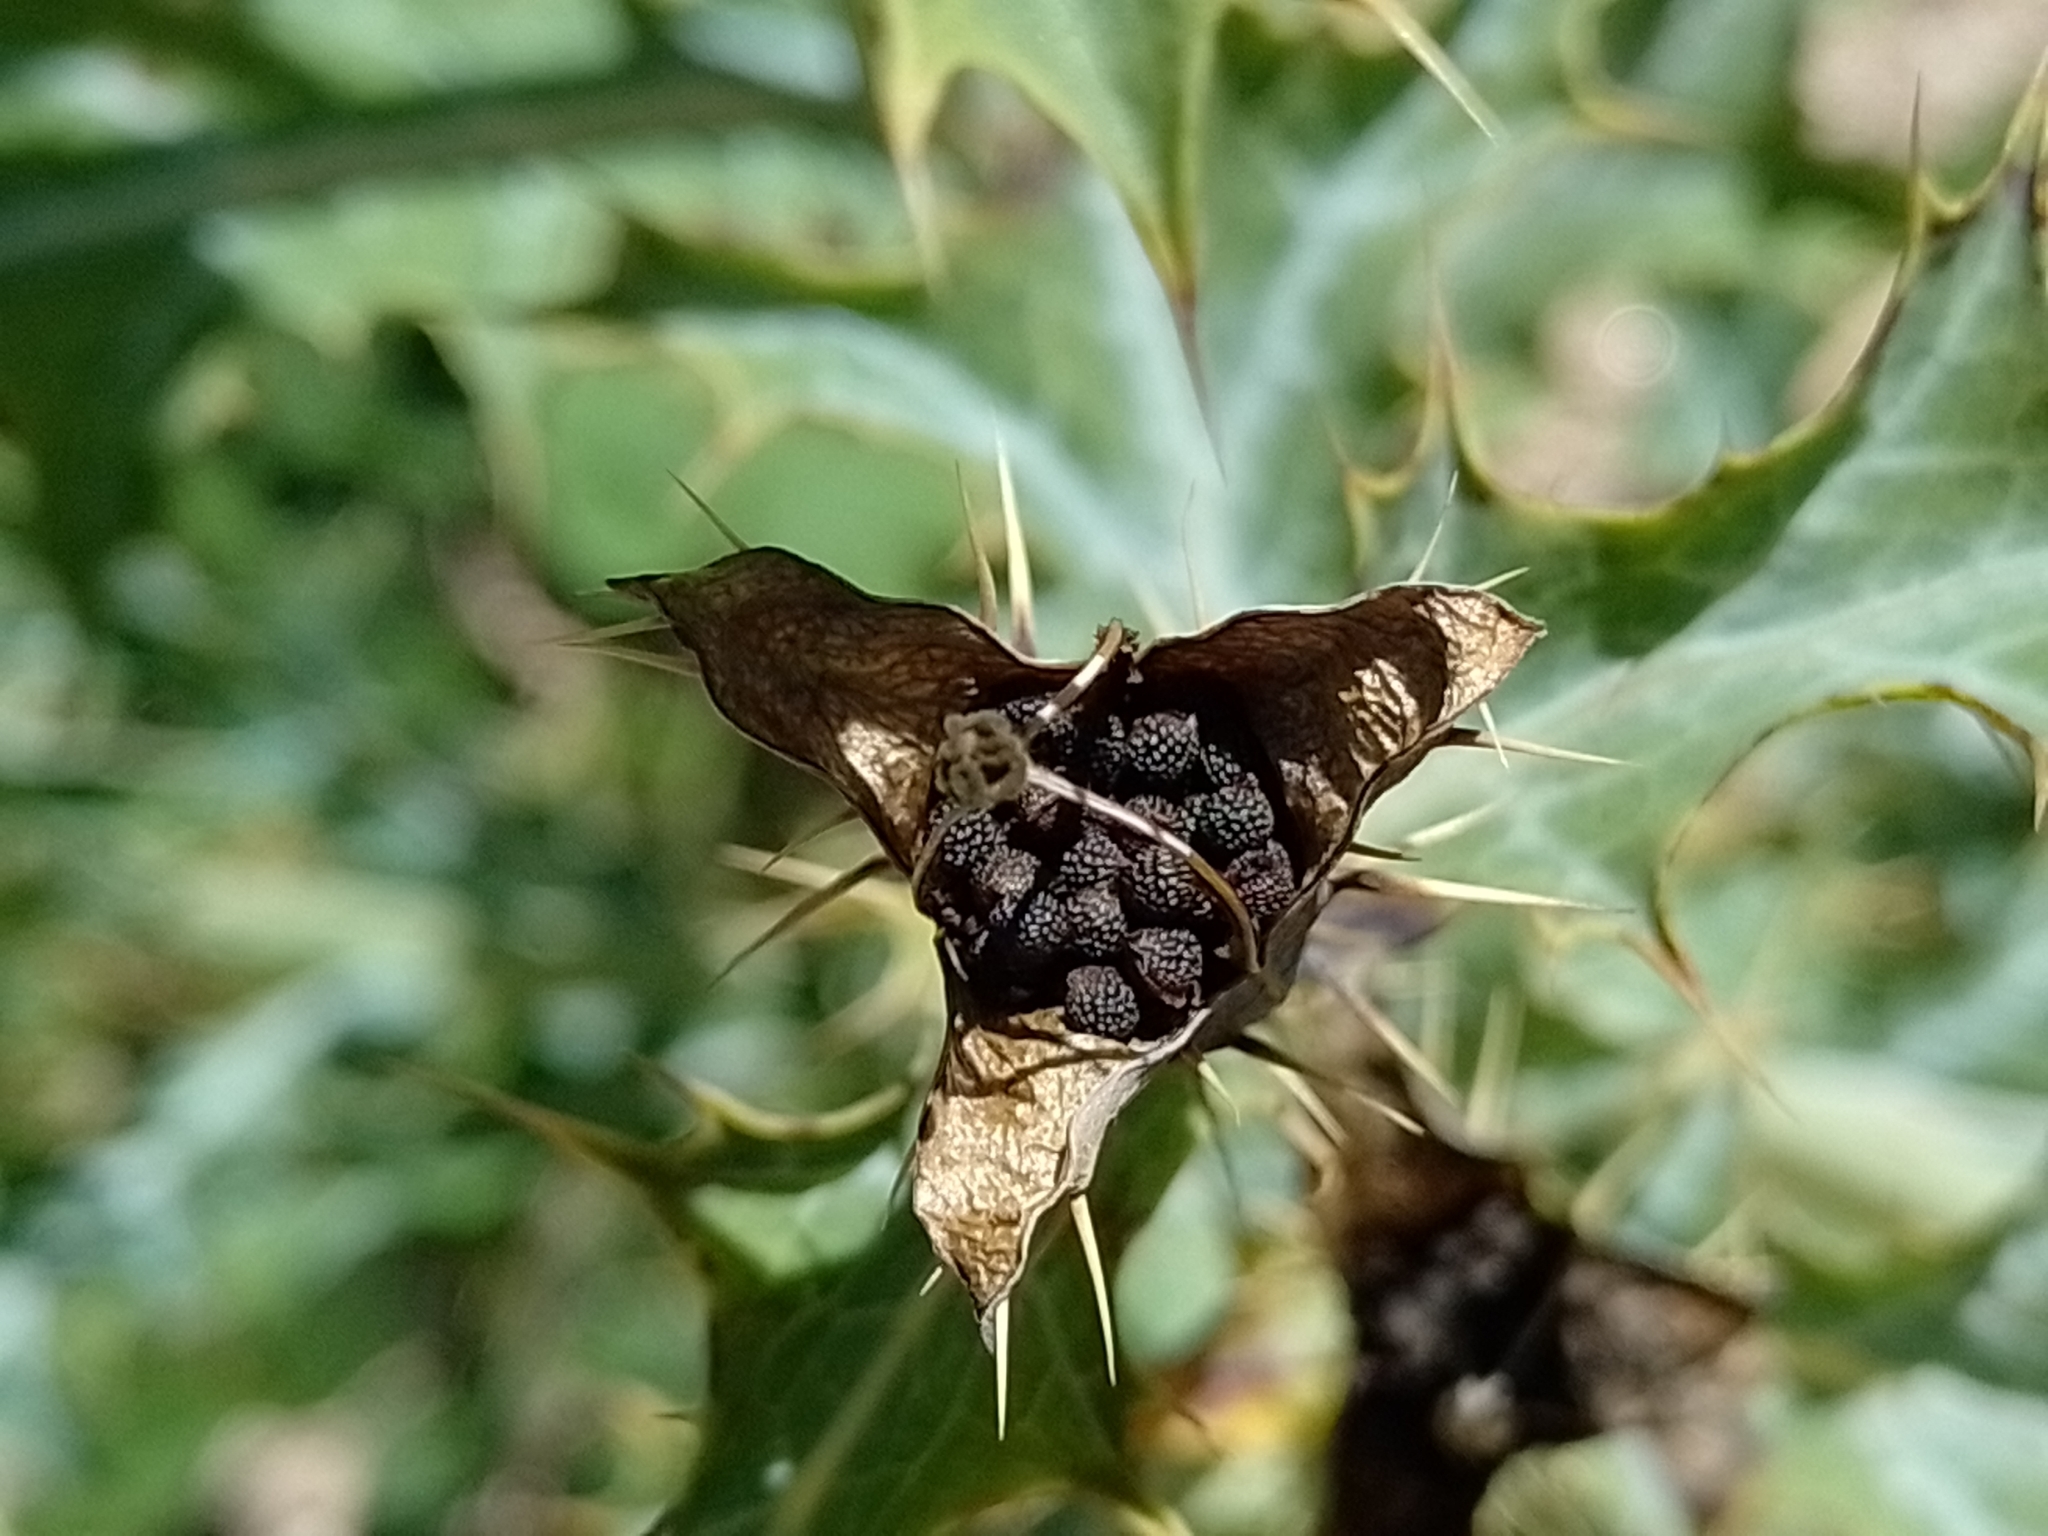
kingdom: Plantae
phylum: Tracheophyta
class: Magnoliopsida
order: Ranunculales
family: Papaveraceae
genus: Argemone
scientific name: Argemone subfusiformis
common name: American-poppy
